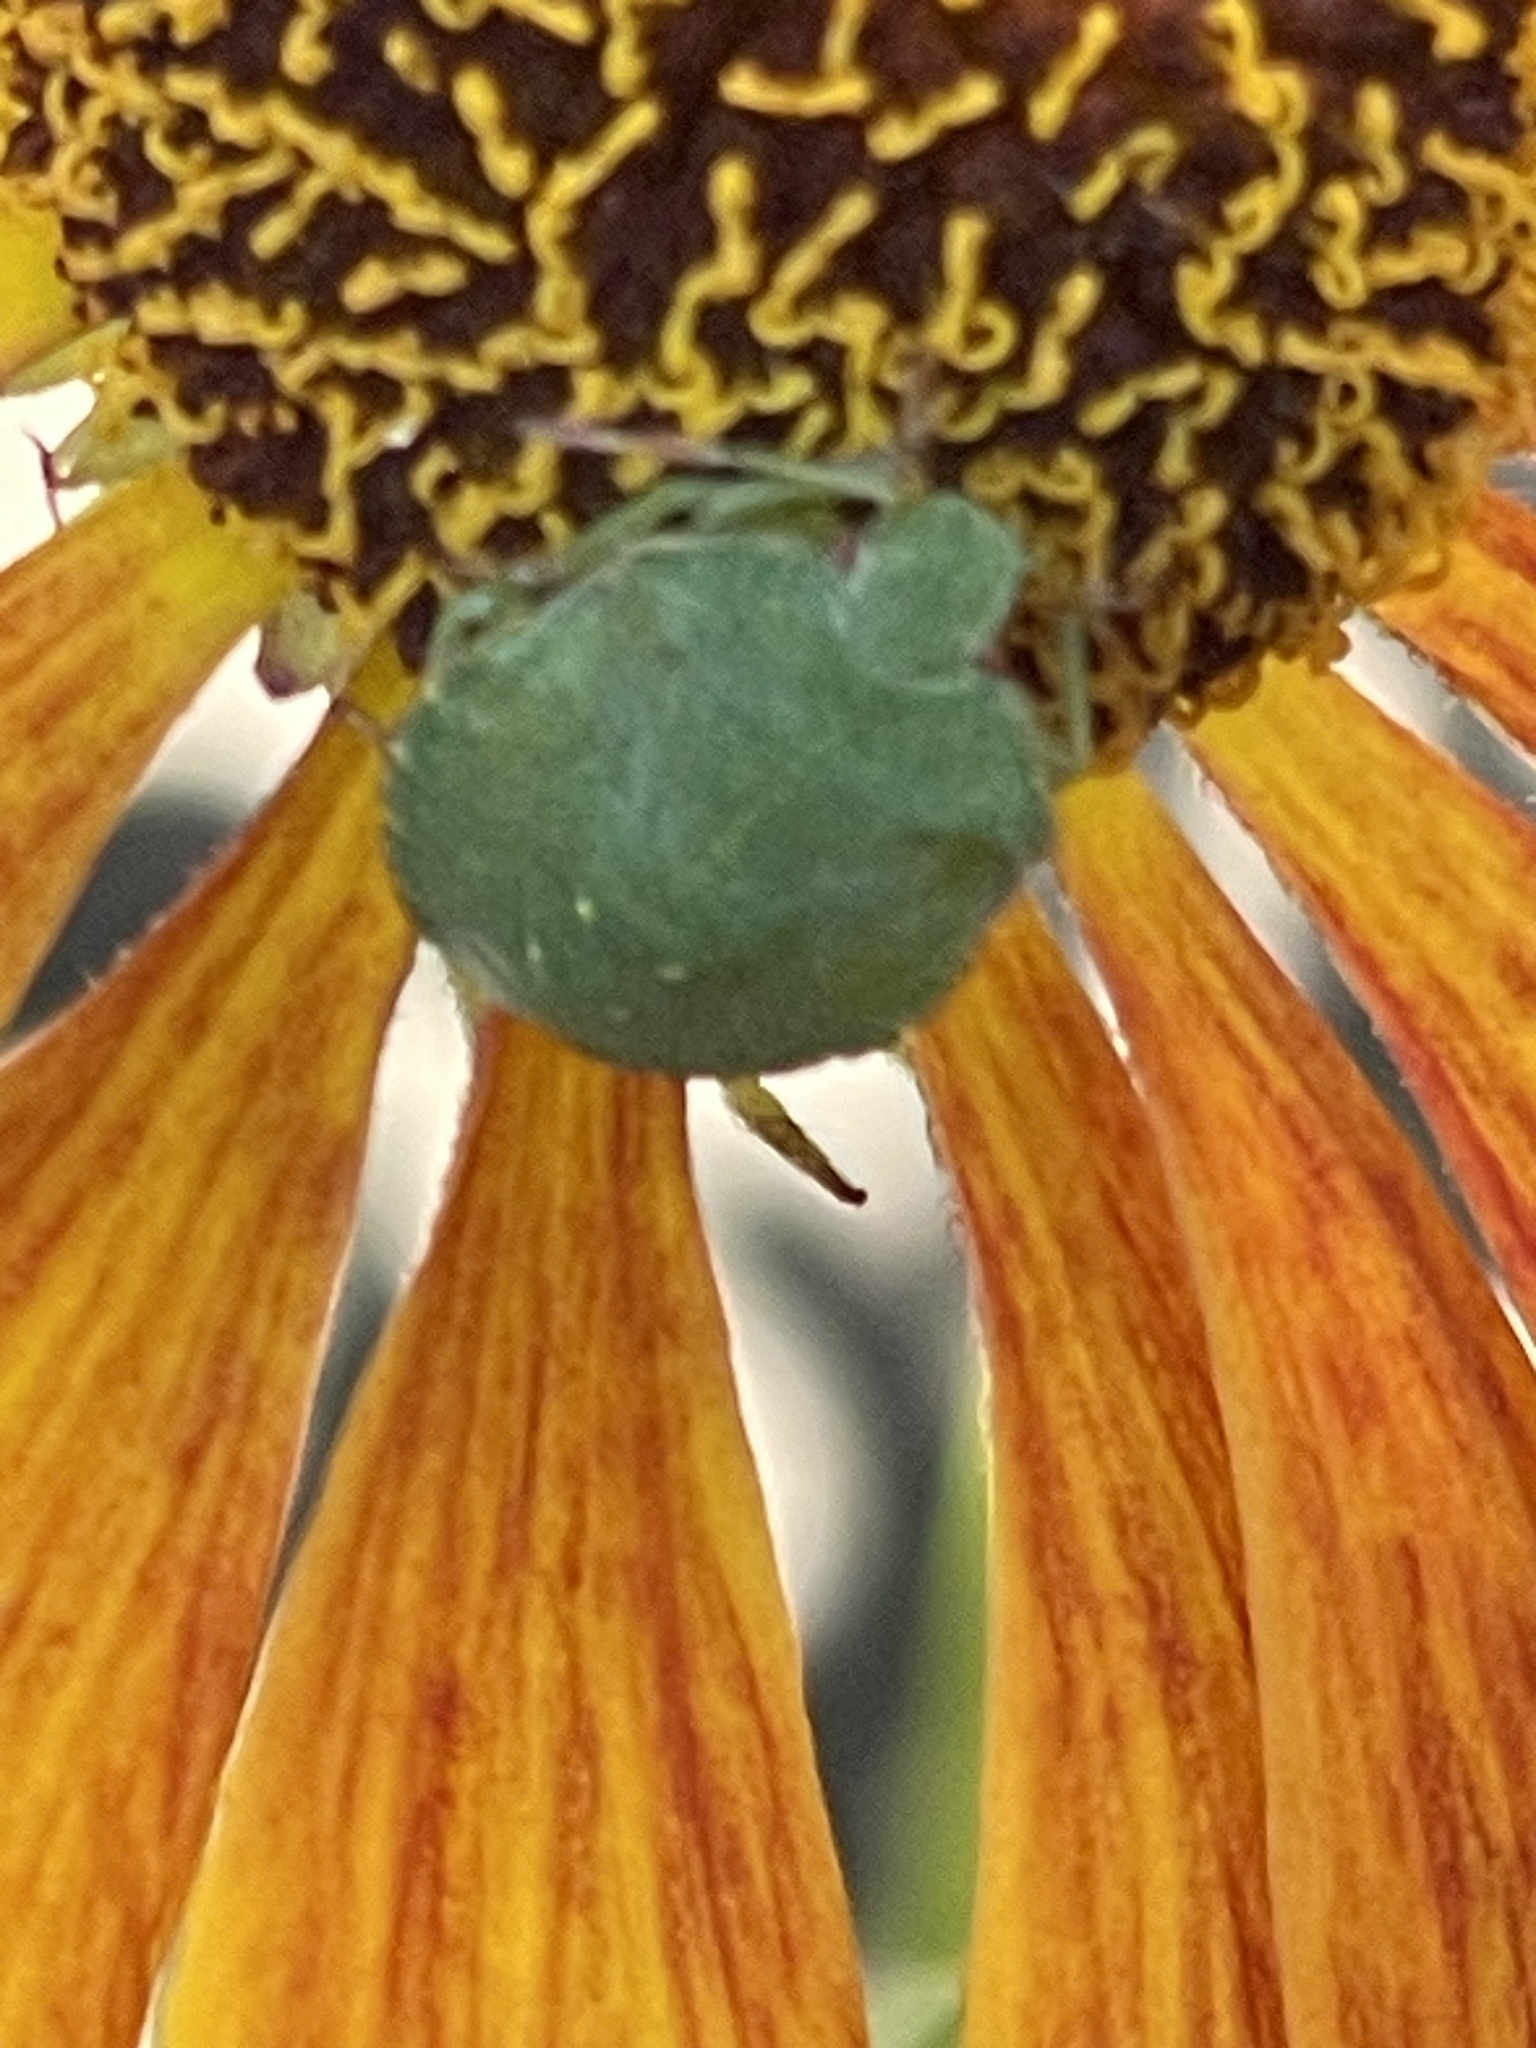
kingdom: Animalia
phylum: Arthropoda
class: Insecta
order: Hemiptera
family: Pentatomidae
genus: Palomena
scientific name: Palomena prasina
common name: Green shieldbug
